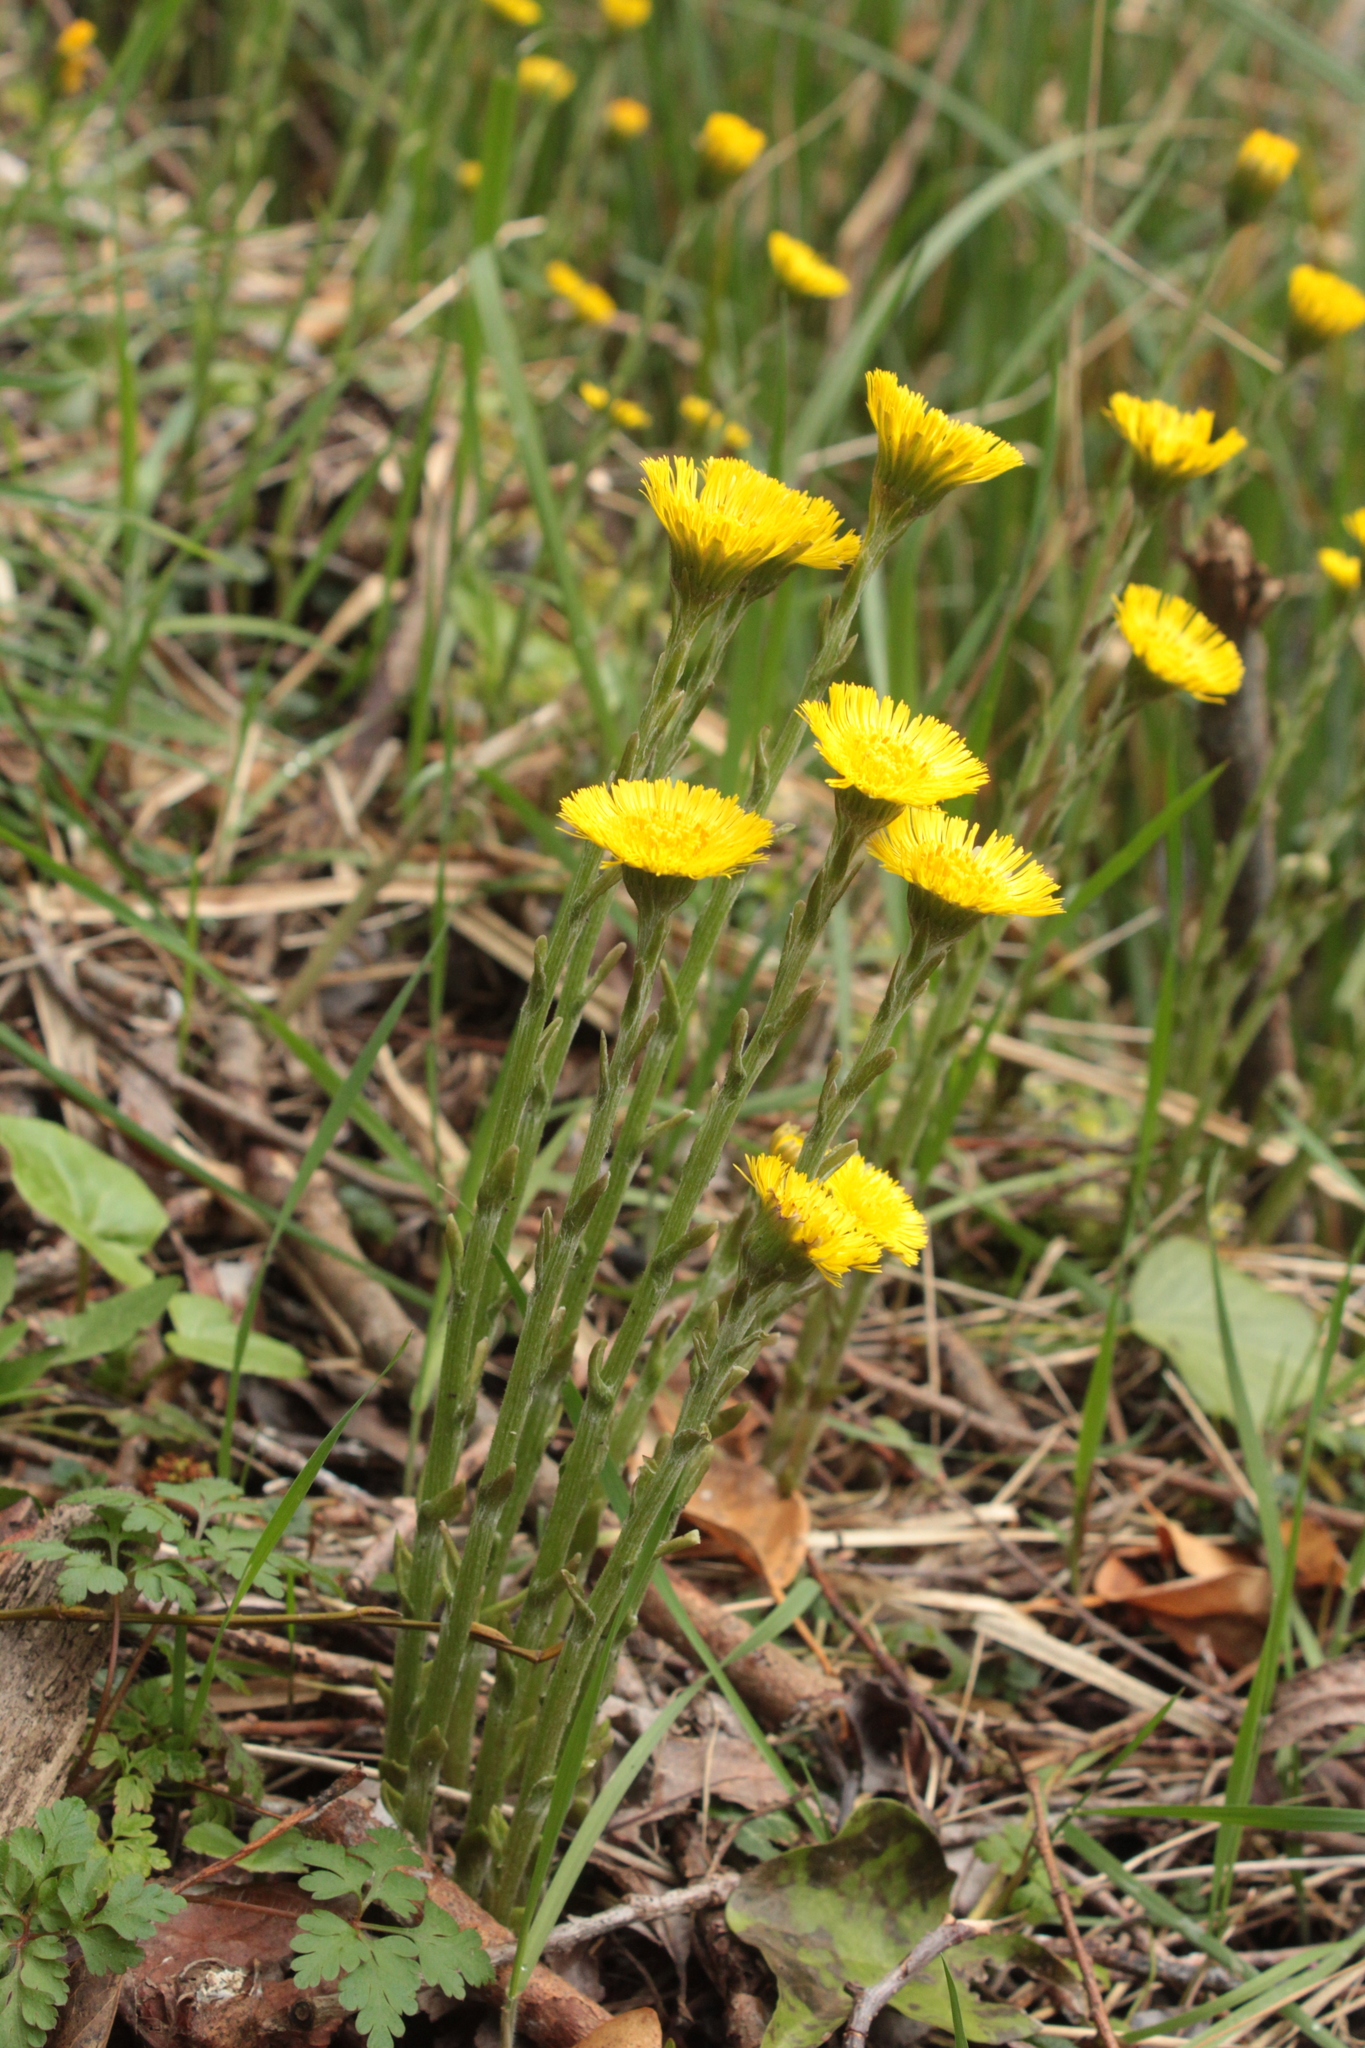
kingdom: Plantae
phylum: Tracheophyta
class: Magnoliopsida
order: Asterales
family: Asteraceae
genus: Tussilago
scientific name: Tussilago farfara
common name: Coltsfoot
